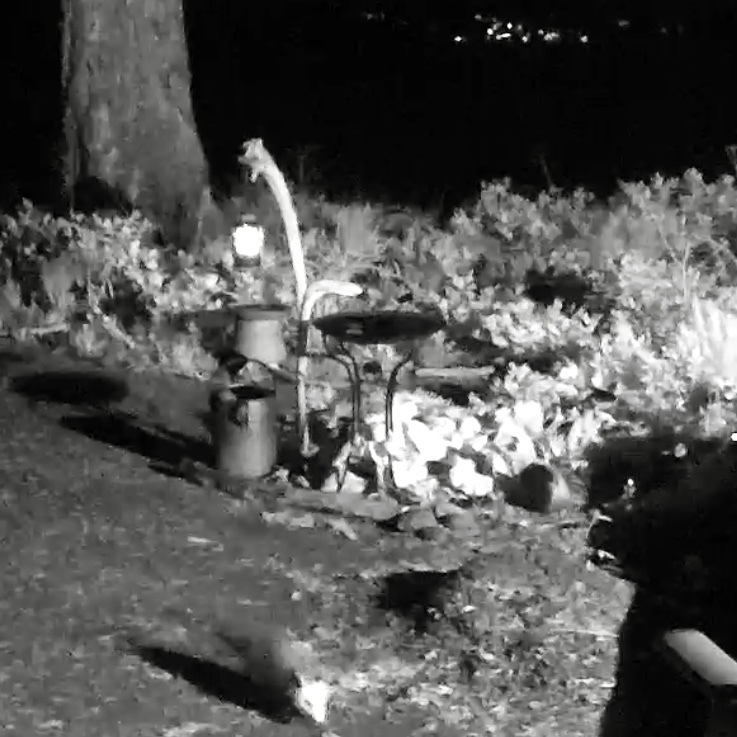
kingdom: Animalia
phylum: Chordata
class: Mammalia
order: Didelphimorphia
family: Didelphidae
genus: Didelphis
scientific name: Didelphis virginiana
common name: Virginia opossum
